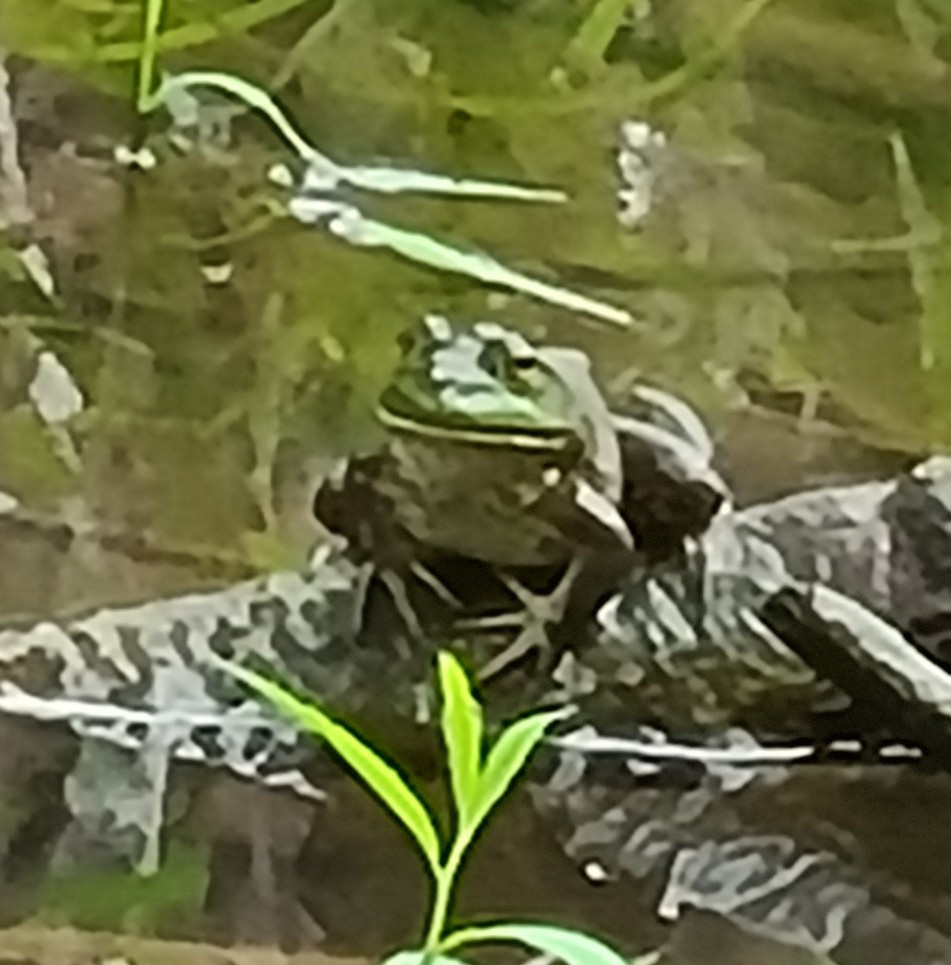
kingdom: Animalia
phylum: Chordata
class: Amphibia
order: Anura
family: Ranidae
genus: Lithobates
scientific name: Lithobates catesbeianus
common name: American bullfrog
